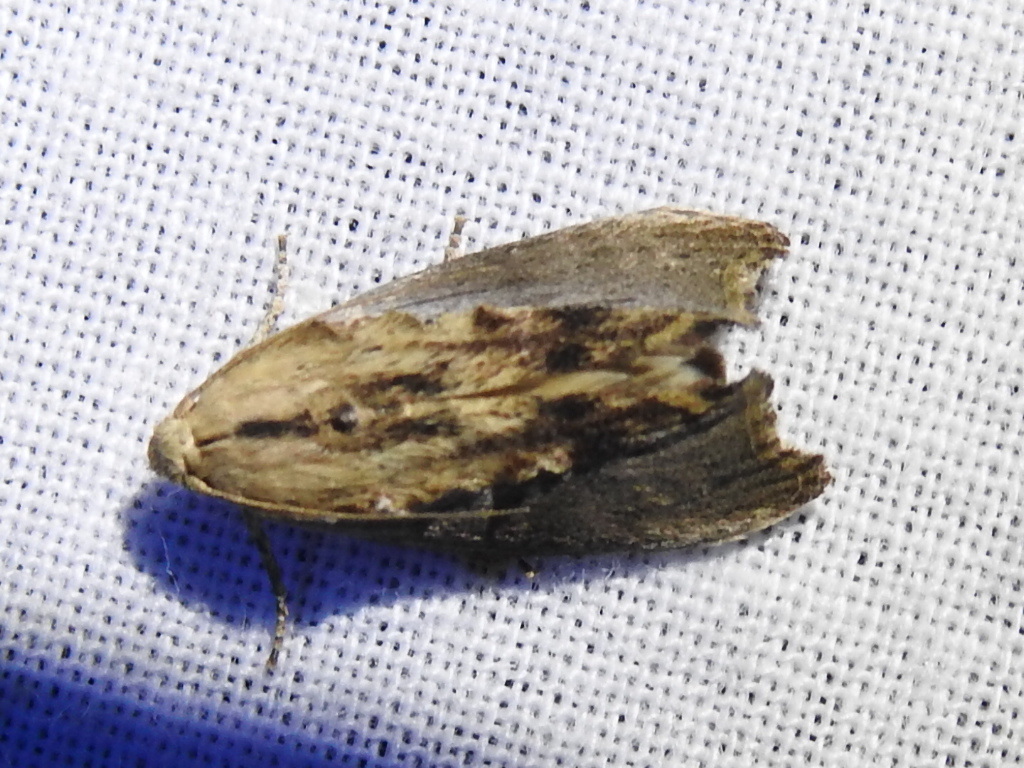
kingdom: Animalia
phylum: Arthropoda
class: Insecta
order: Lepidoptera
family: Pyralidae
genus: Galleria
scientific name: Galleria mellonella
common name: Greater wax moth
